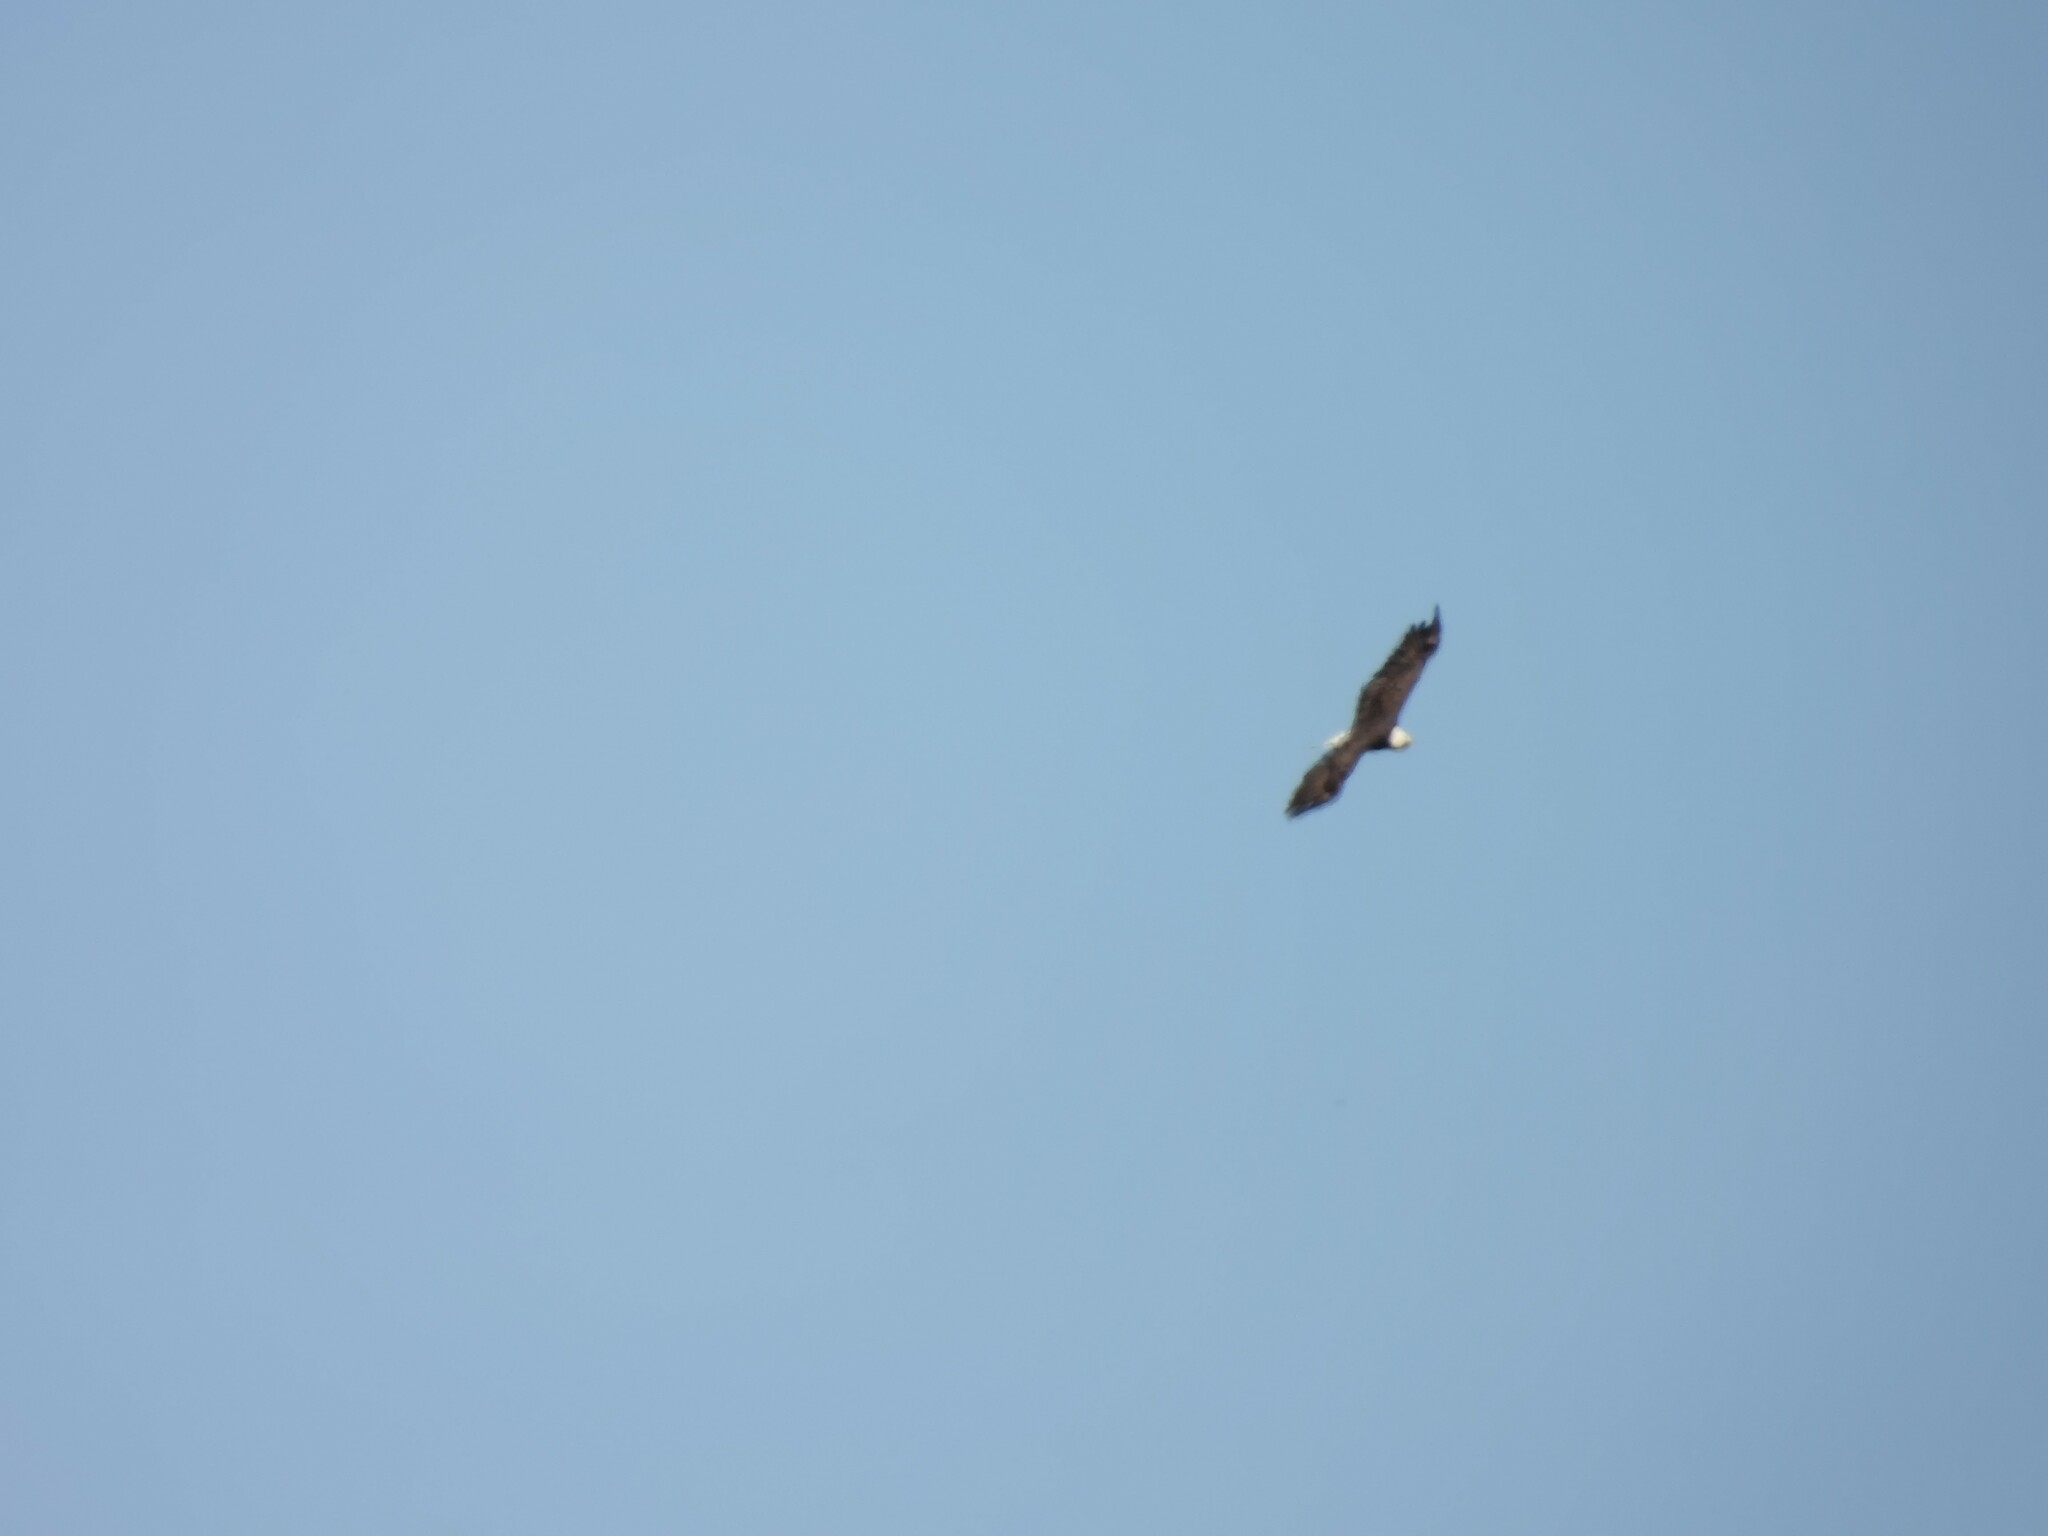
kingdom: Animalia
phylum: Chordata
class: Aves
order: Accipitriformes
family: Accipitridae
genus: Haliaeetus
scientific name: Haliaeetus leucocephalus
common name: Bald eagle
